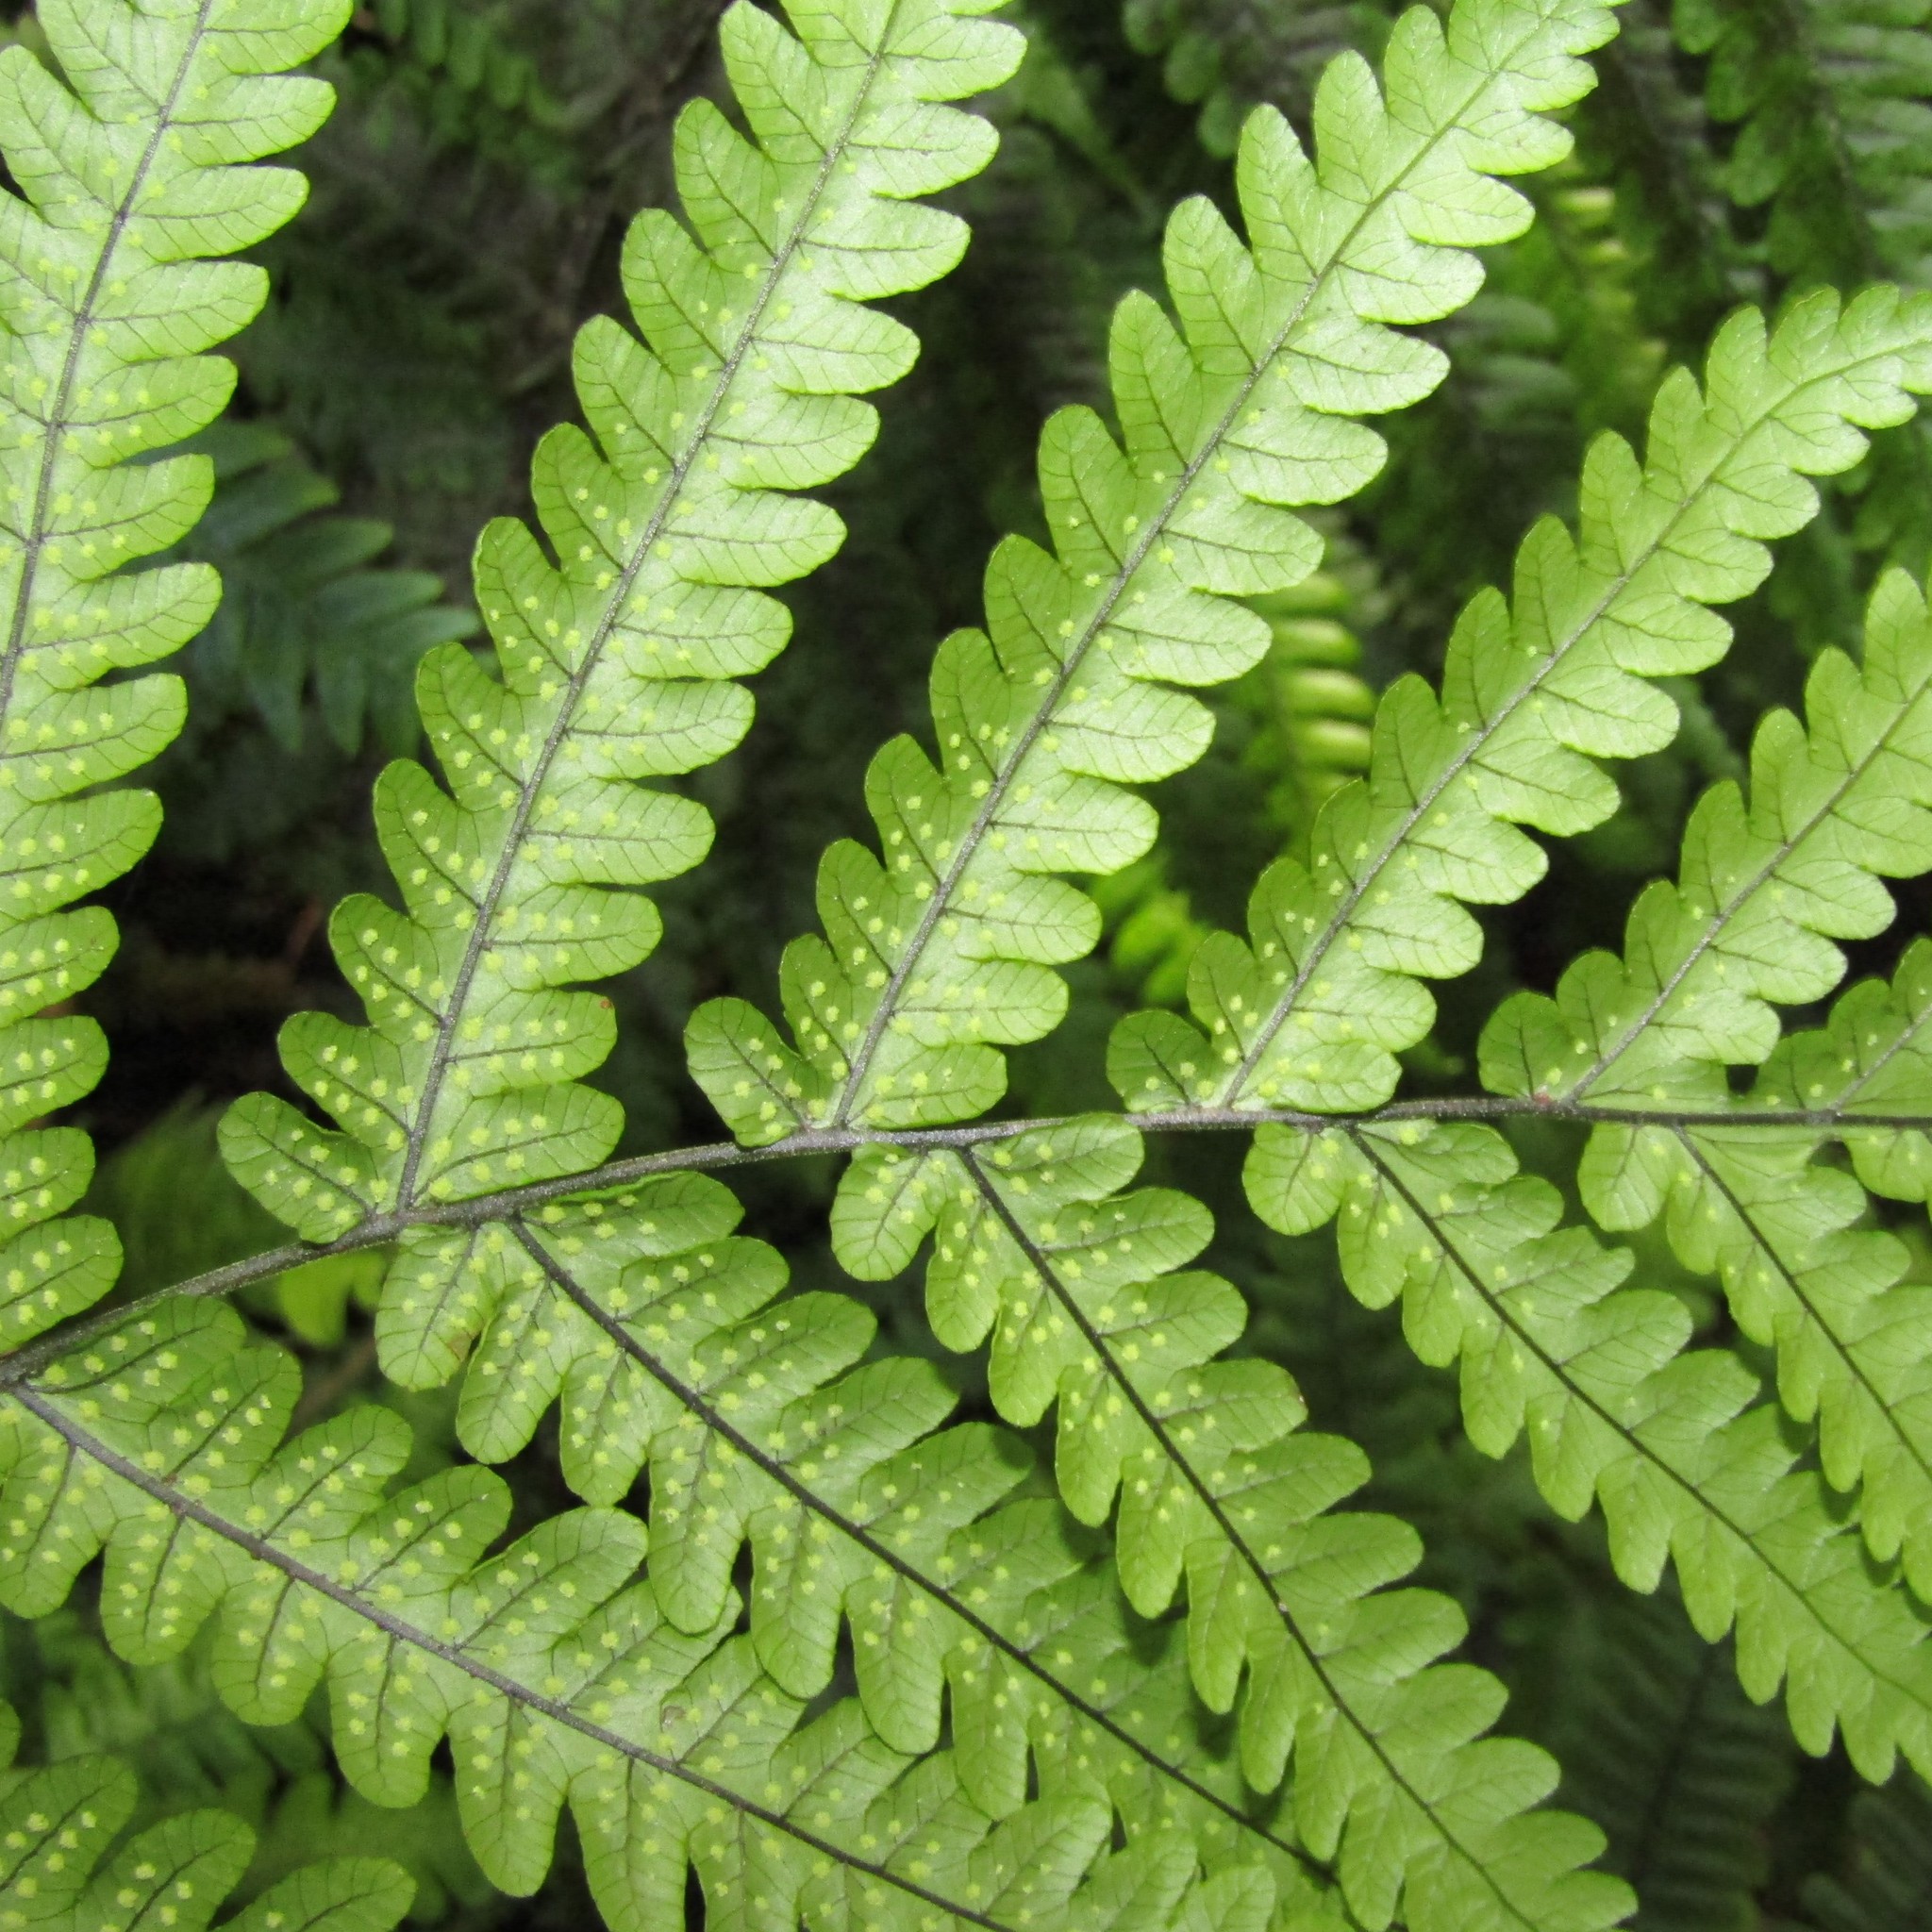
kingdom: Plantae
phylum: Tracheophyta
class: Polypodiopsida
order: Polypodiales
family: Thelypteridaceae
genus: Pakau
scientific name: Pakau pennigera
